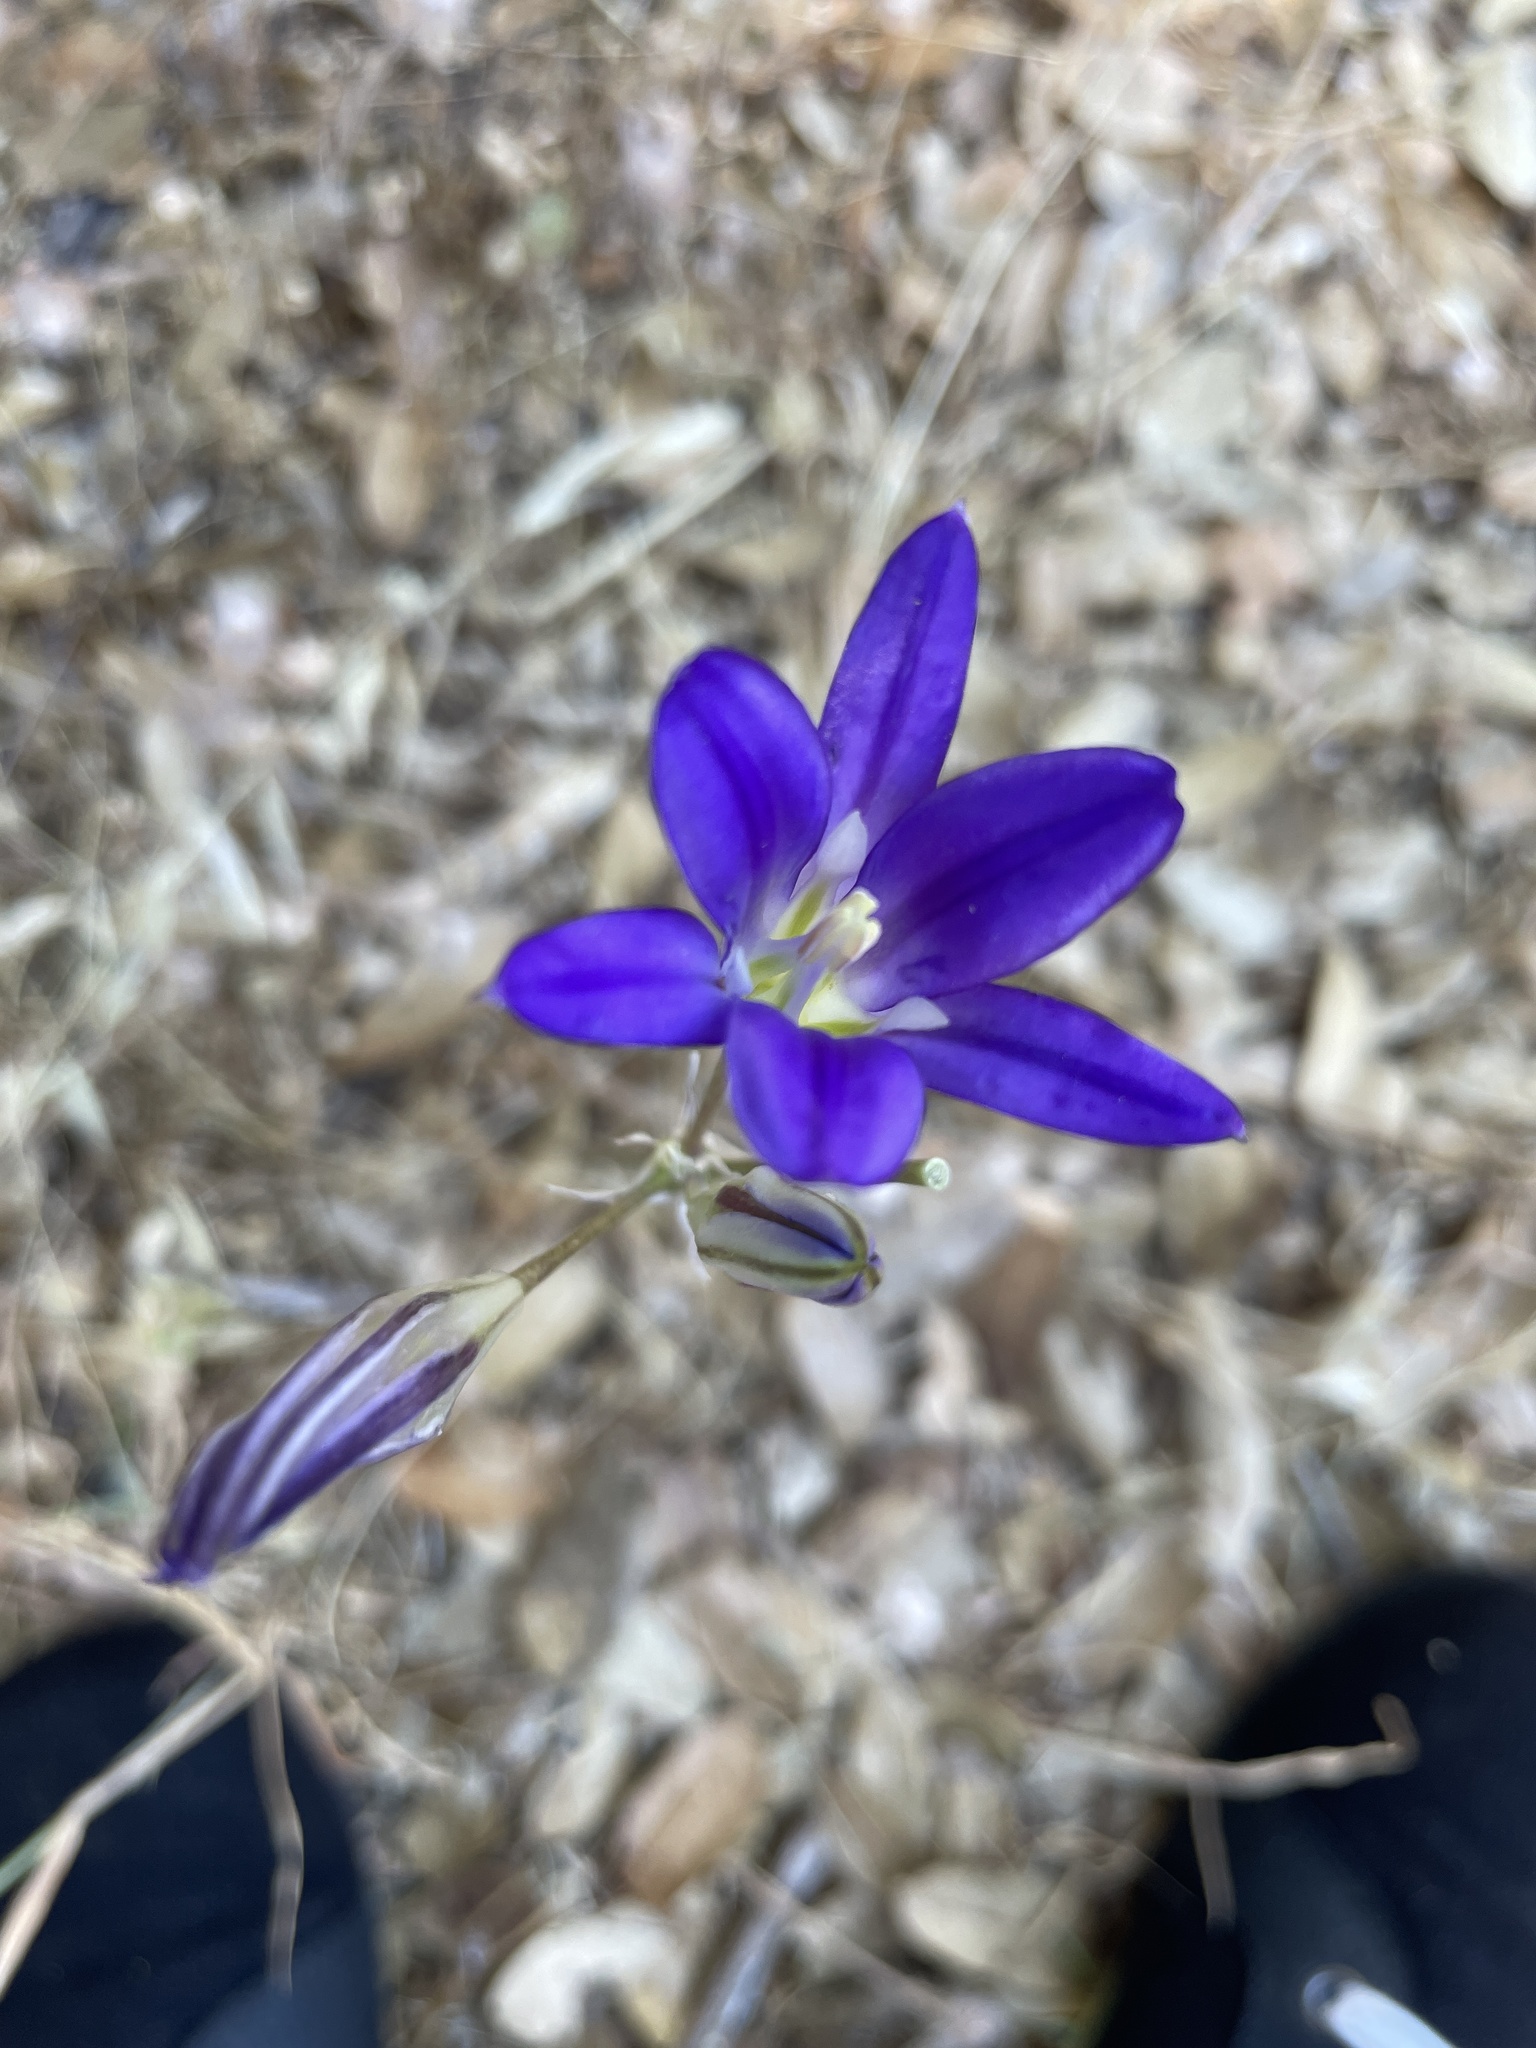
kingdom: Plantae
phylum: Tracheophyta
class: Liliopsida
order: Asparagales
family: Asparagaceae
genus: Brodiaea
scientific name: Brodiaea elegans
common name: Elegant cluster-lily
